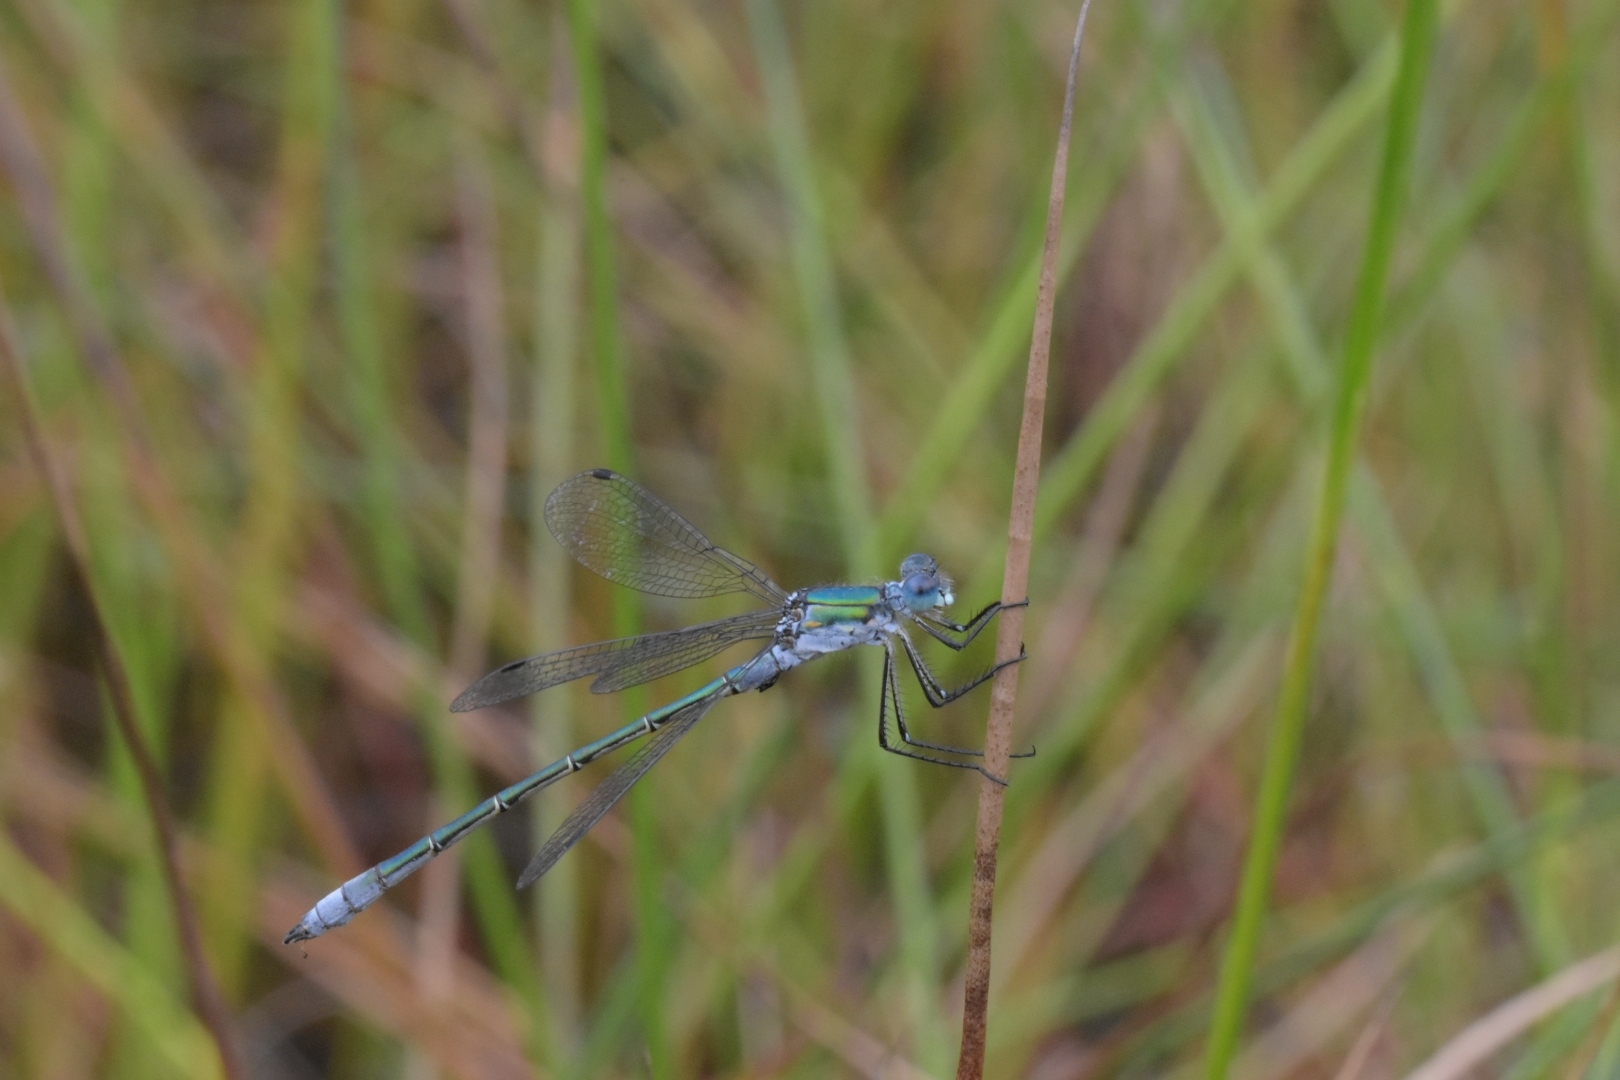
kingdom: Animalia
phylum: Arthropoda
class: Insecta
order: Odonata
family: Lestidae
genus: Lestes
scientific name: Lestes dryas
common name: Scarce emerald damselfly
